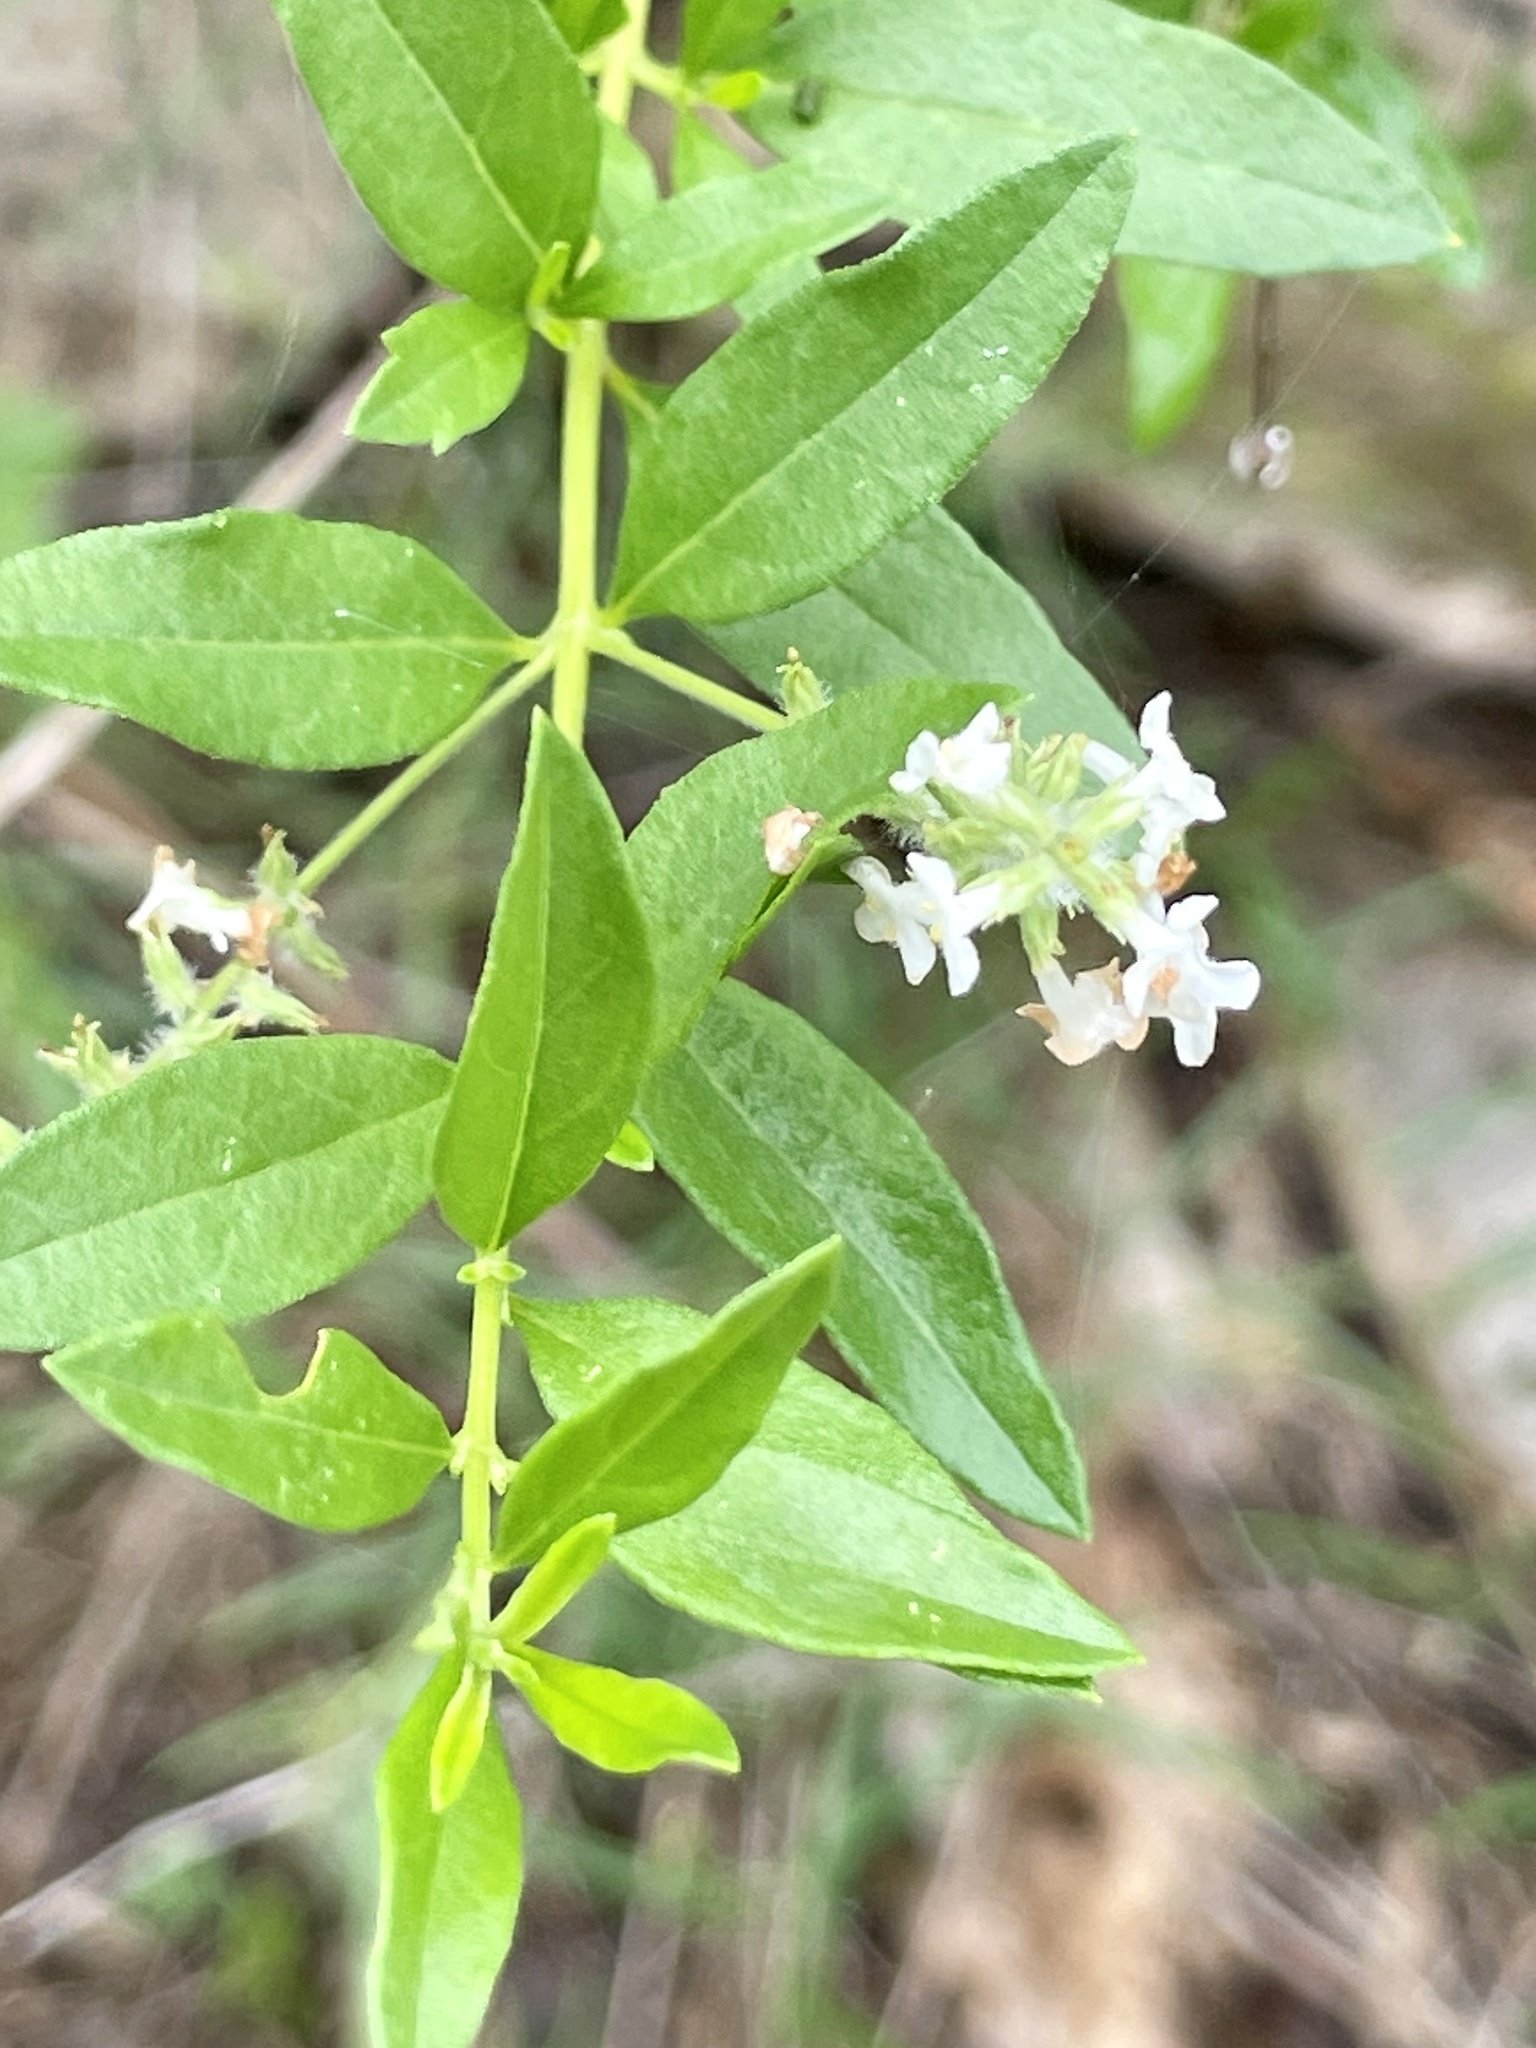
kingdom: Plantae
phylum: Tracheophyta
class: Magnoliopsida
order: Lamiales
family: Verbenaceae
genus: Aloysia
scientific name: Aloysia gratissima
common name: Common bee-brush
